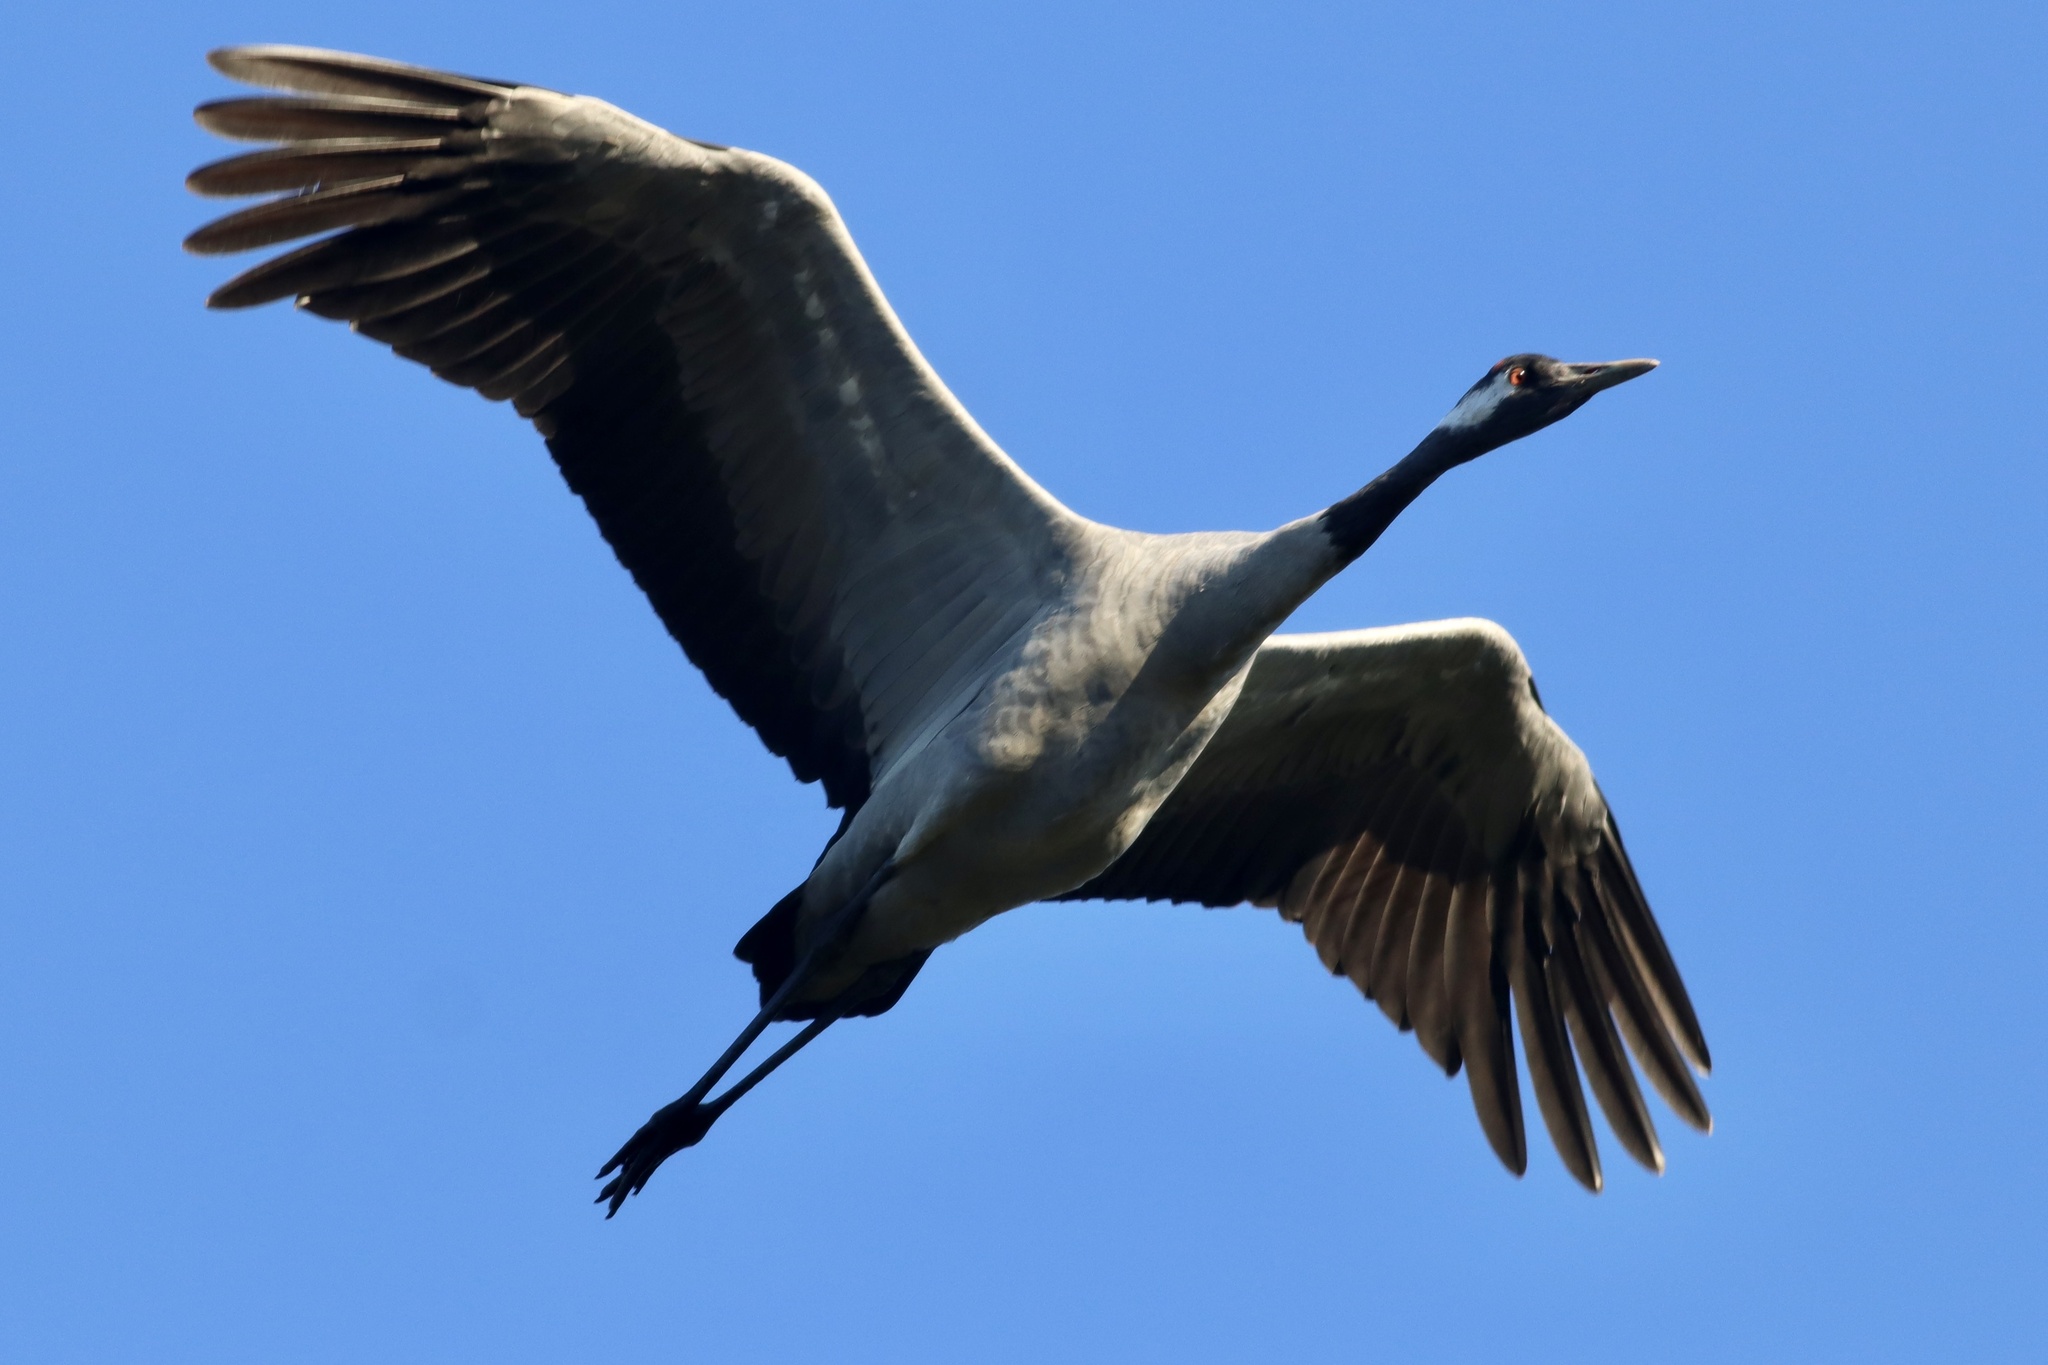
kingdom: Animalia
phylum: Chordata
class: Aves
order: Gruiformes
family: Gruidae
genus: Grus
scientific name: Grus grus
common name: Common crane
